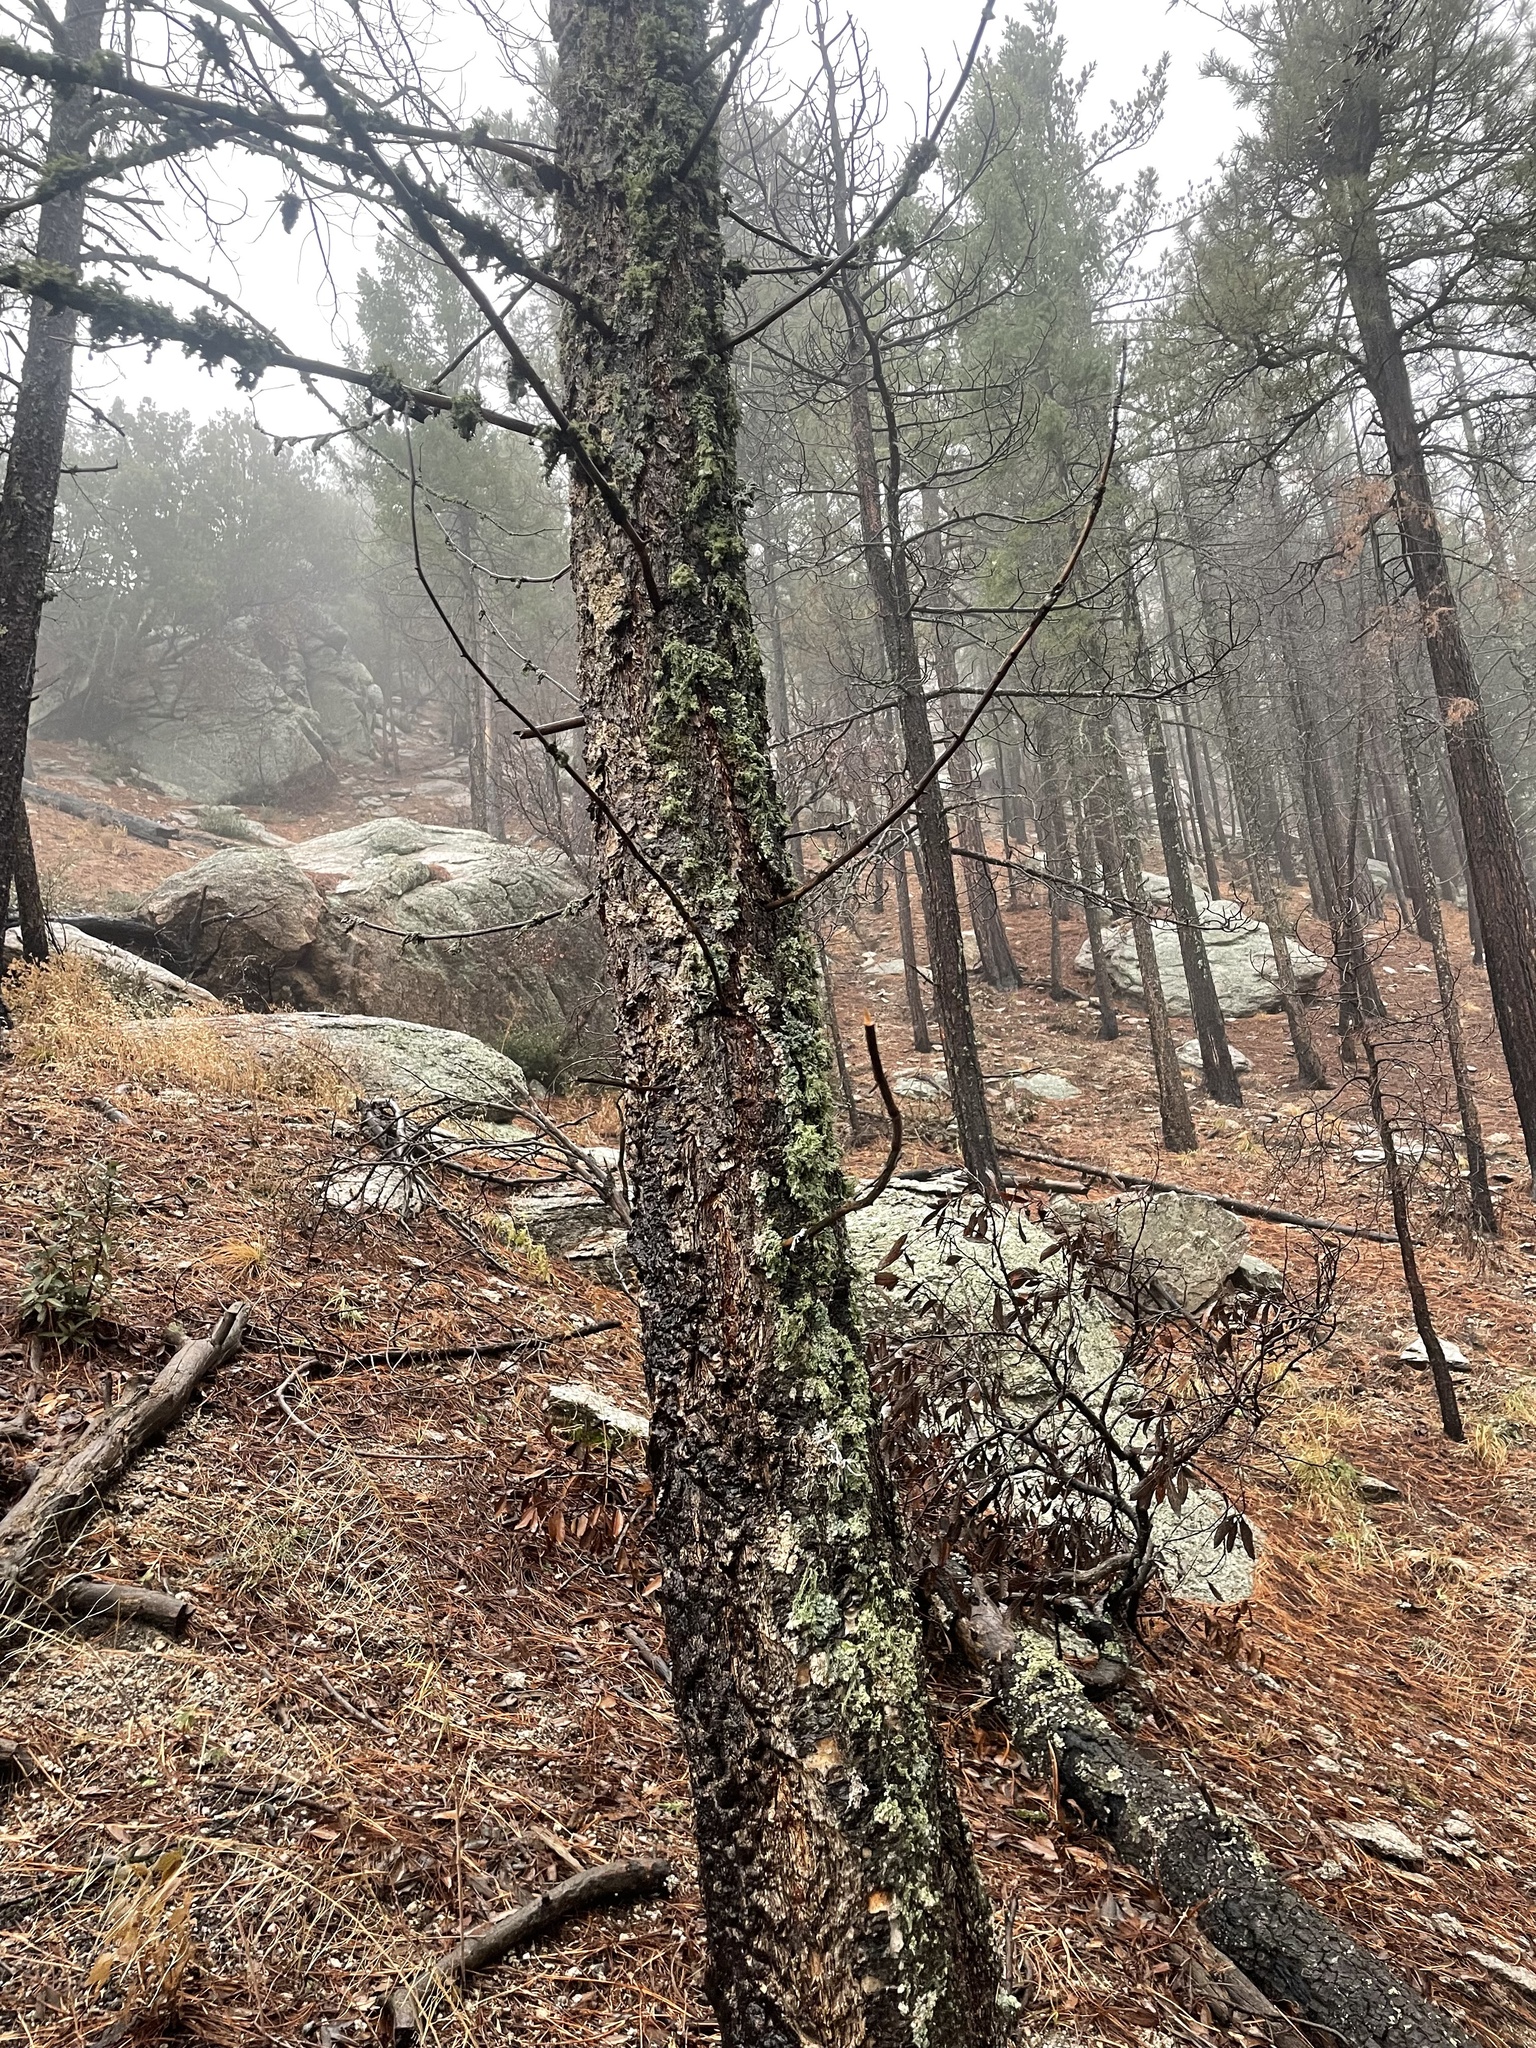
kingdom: Plantae
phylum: Tracheophyta
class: Pinopsida
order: Pinales
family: Pinaceae
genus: Pseudotsuga
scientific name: Pseudotsuga menziesii
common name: Douglas fir
